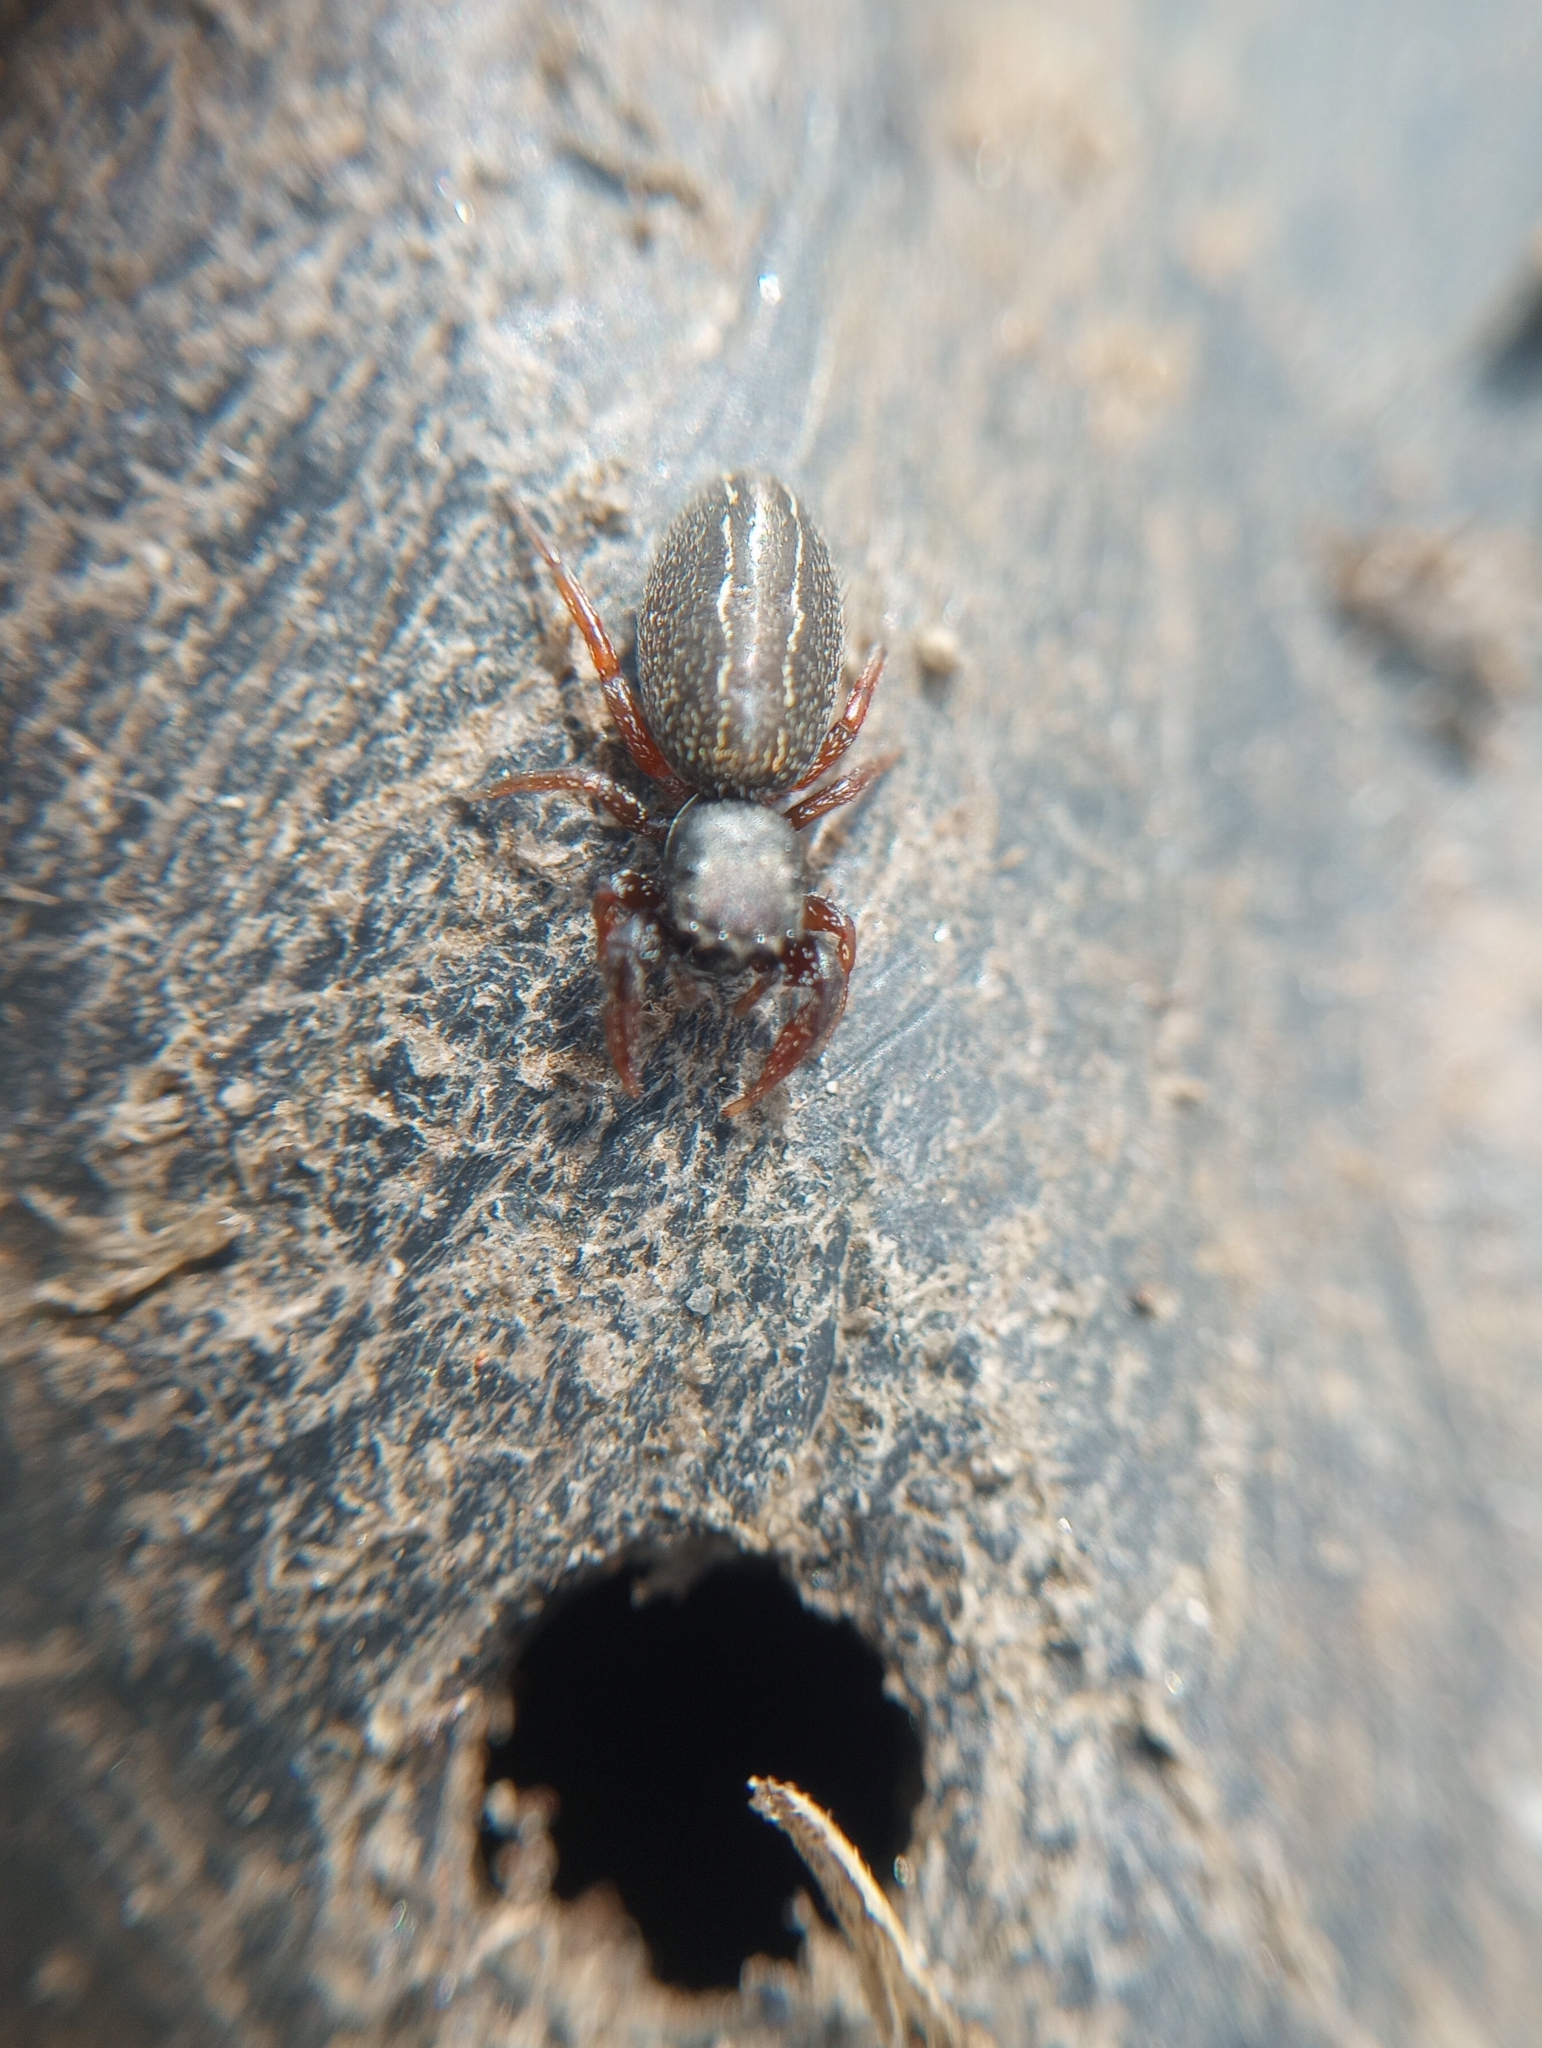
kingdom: Animalia
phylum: Arthropoda
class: Arachnida
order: Araneae
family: Salticidae
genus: Metacyrba
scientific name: Metacyrba taeniola
